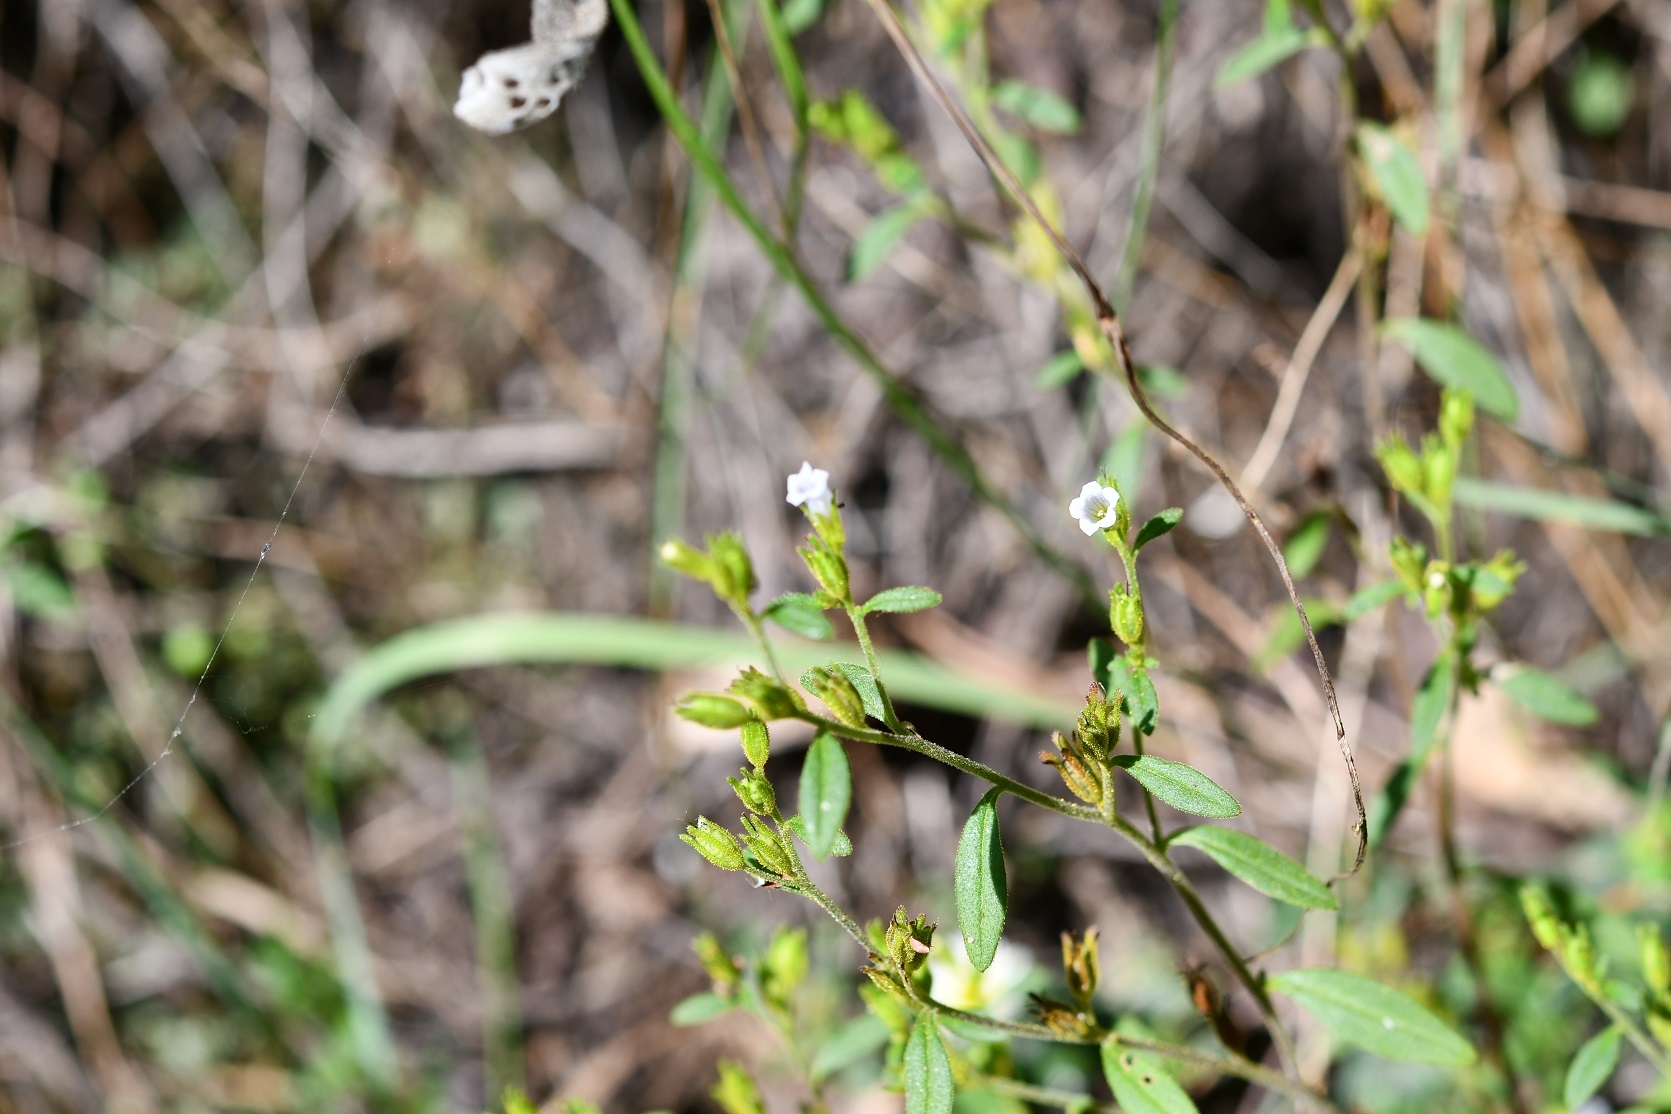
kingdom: Plantae
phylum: Tracheophyta
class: Magnoliopsida
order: Boraginales
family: Namaceae
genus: Nama
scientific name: Nama dichotoma
